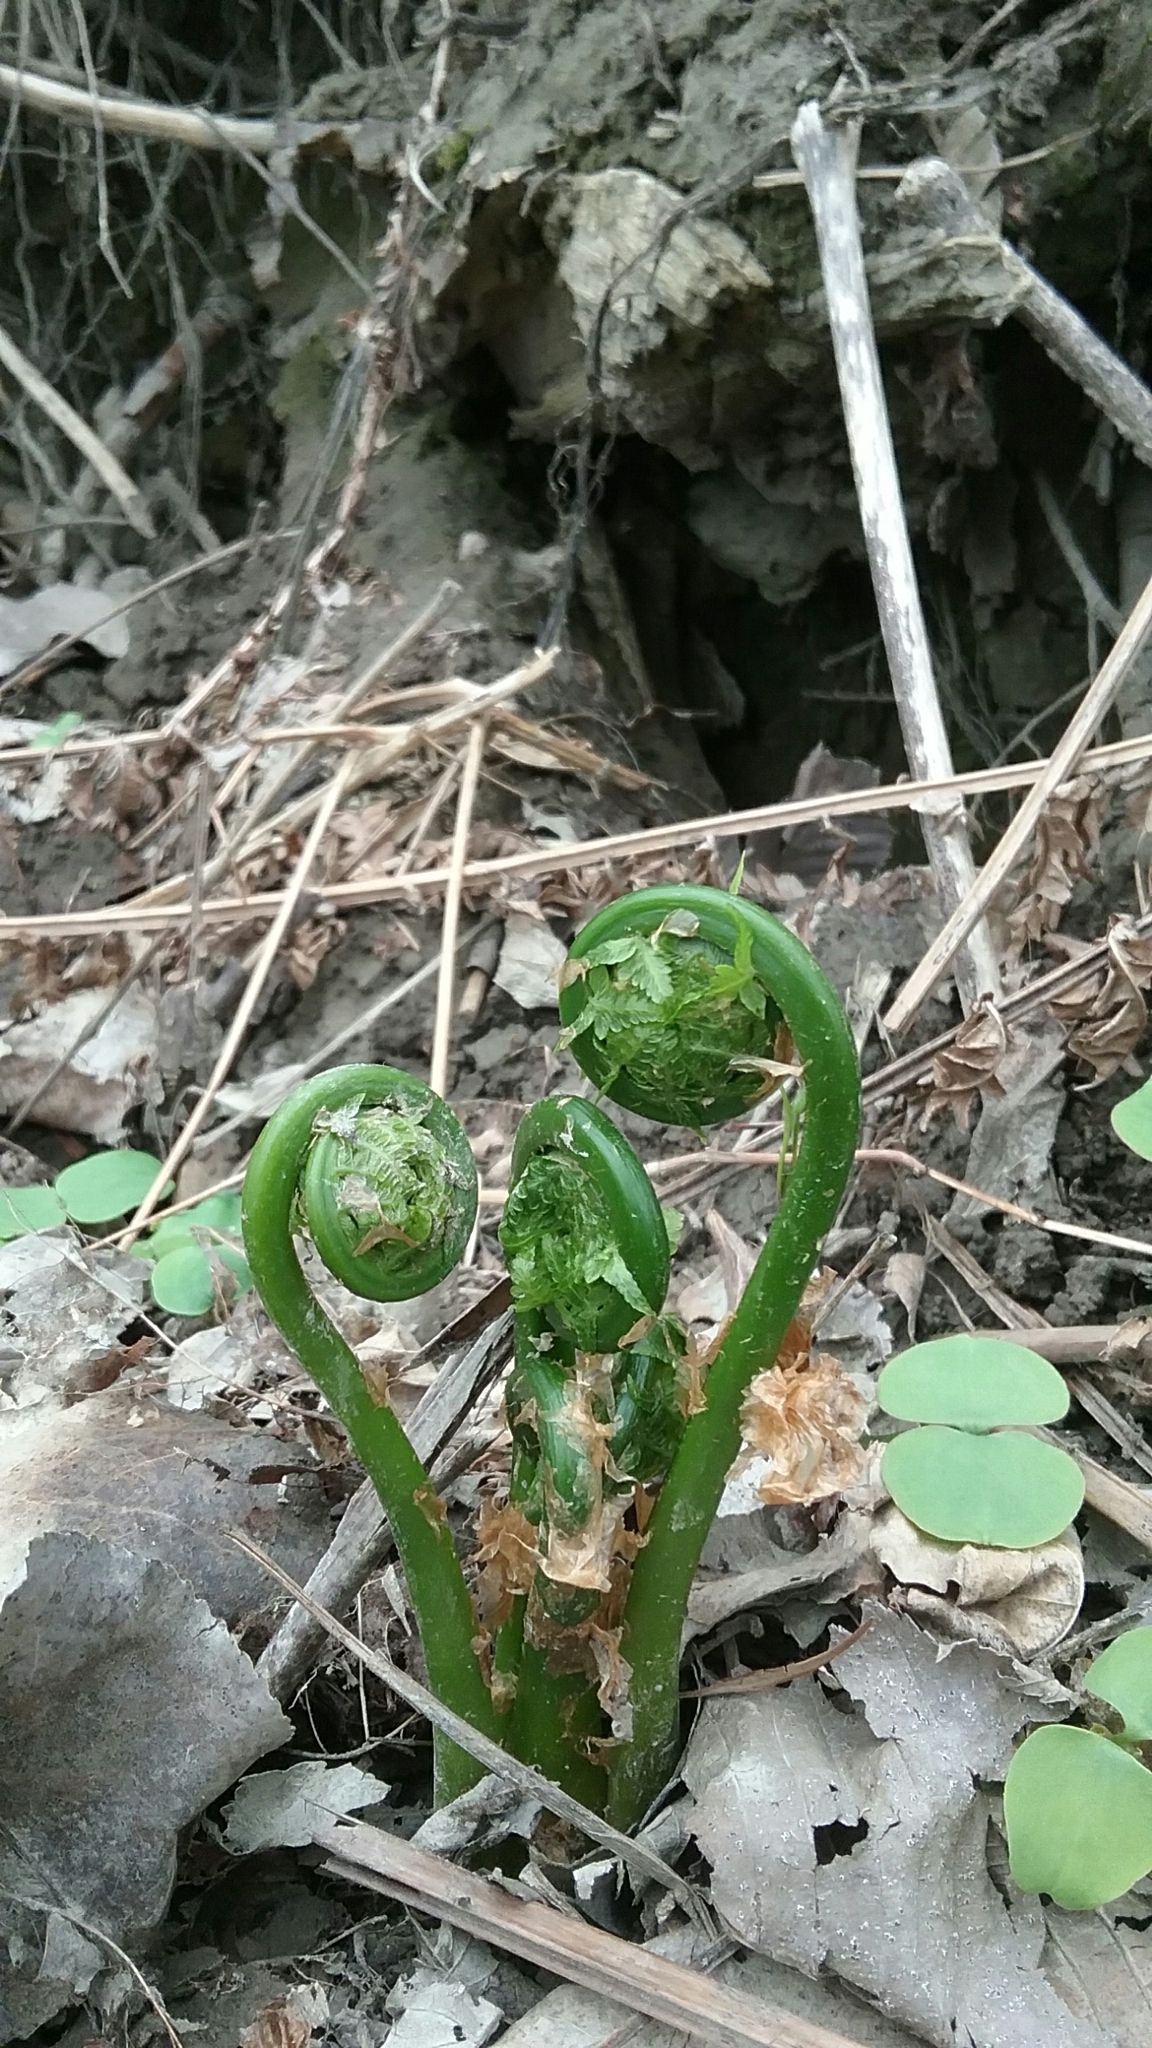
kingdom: Plantae
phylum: Tracheophyta
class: Polypodiopsida
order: Polypodiales
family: Onocleaceae
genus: Matteuccia
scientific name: Matteuccia struthiopteris
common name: Ostrich fern
